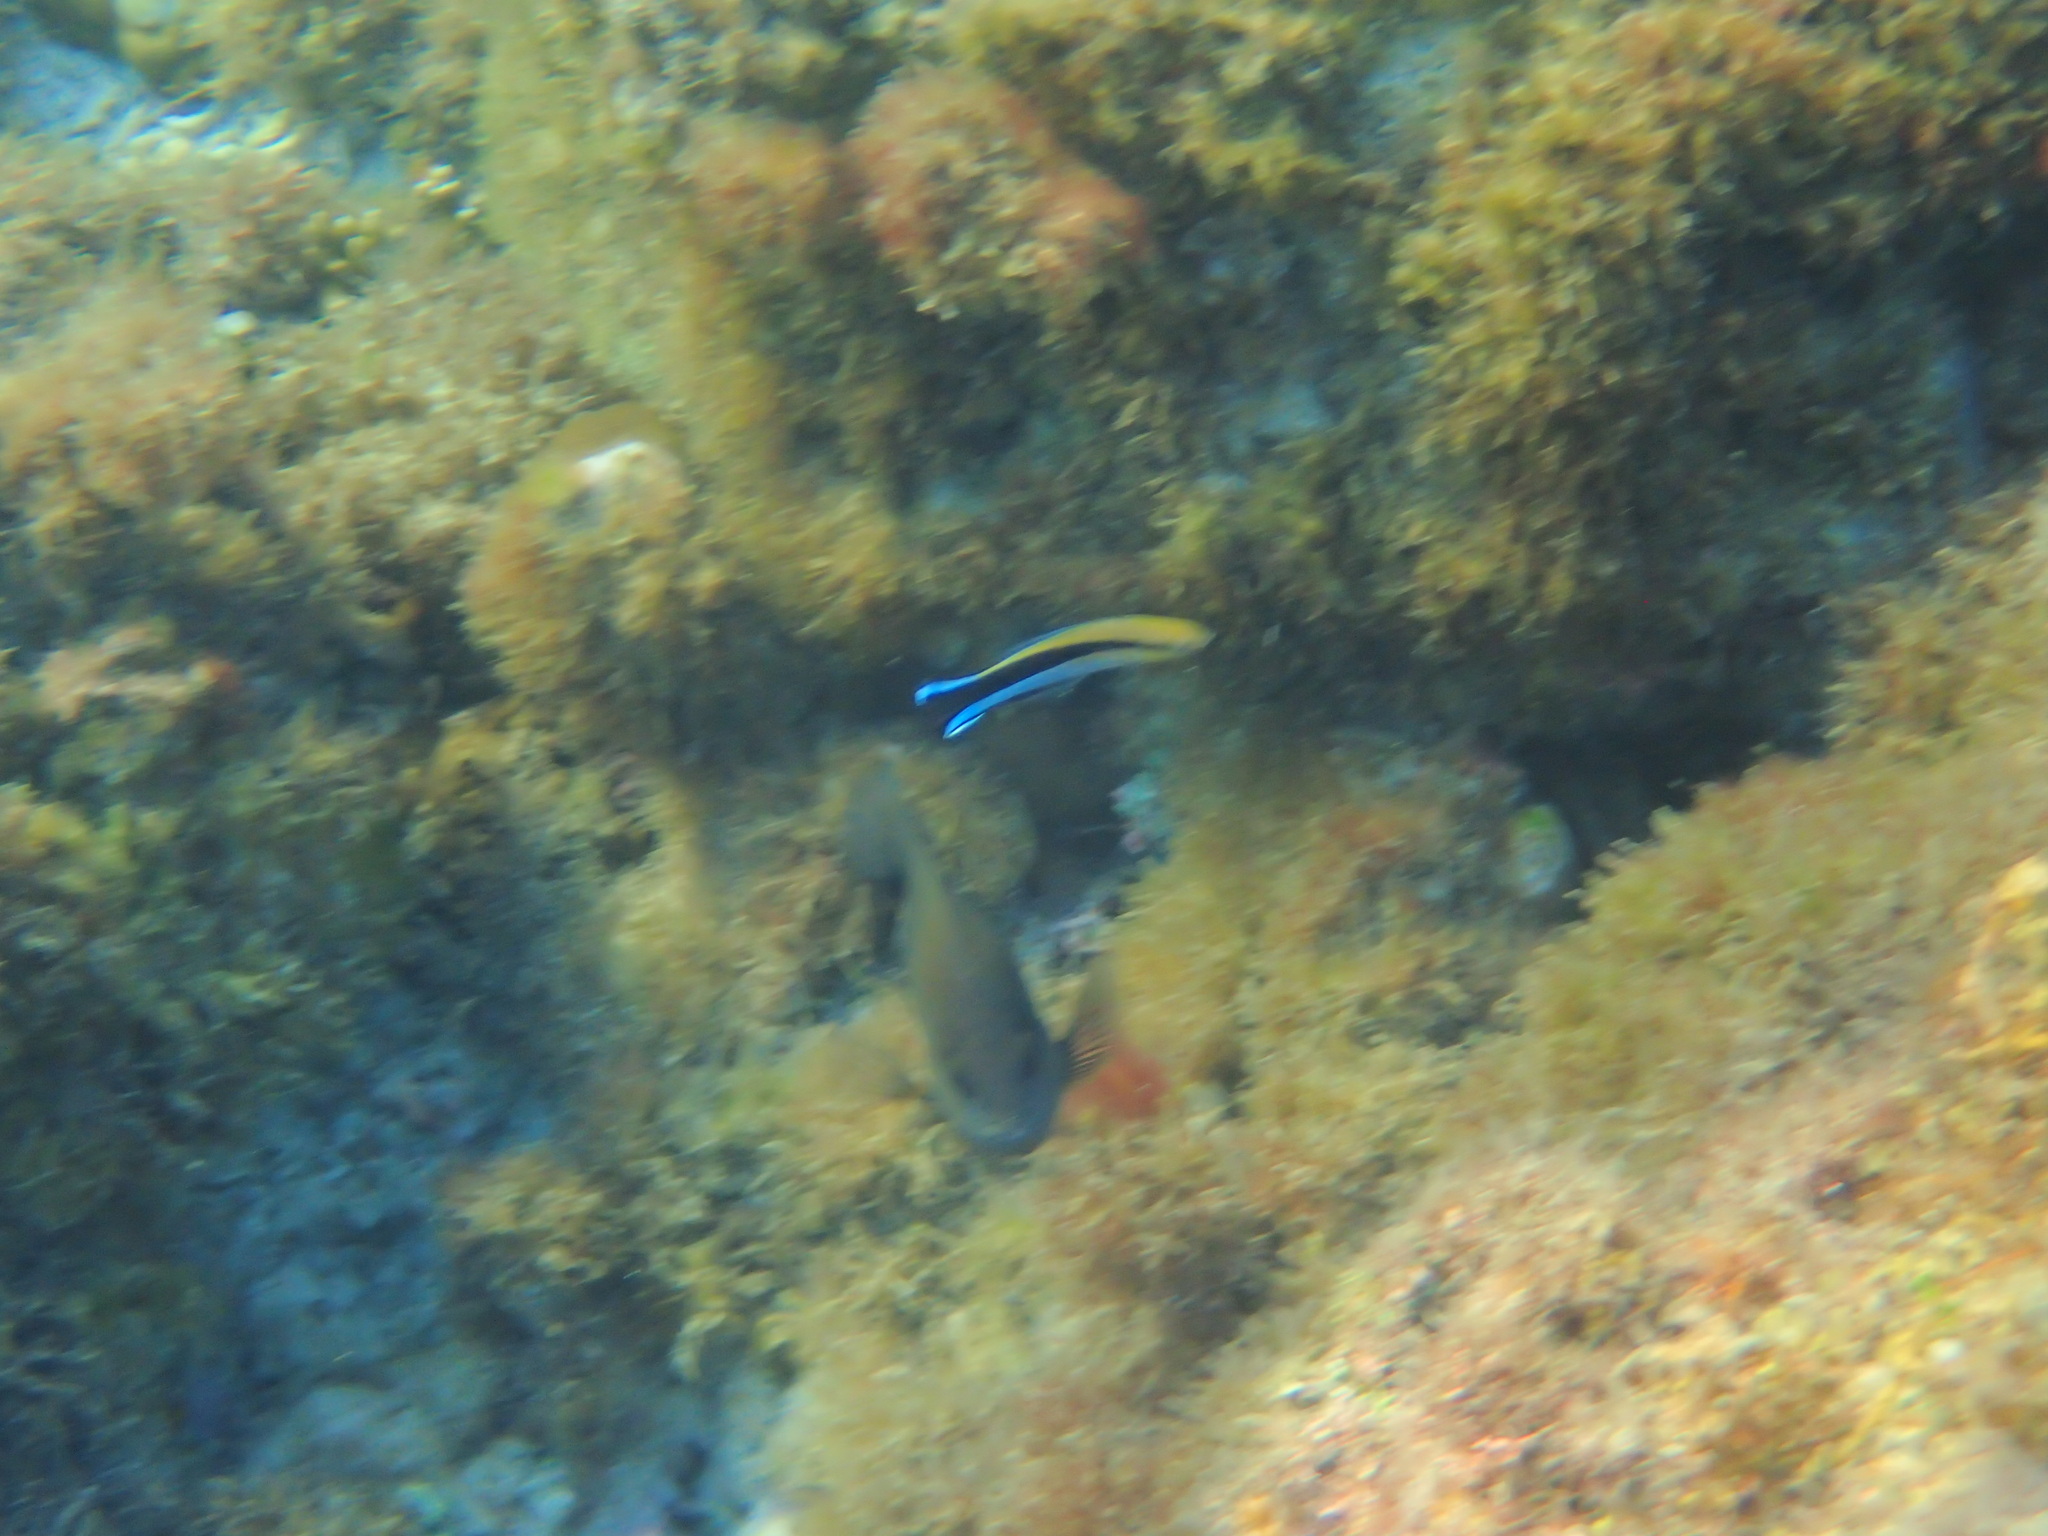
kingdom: Animalia
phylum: Chordata
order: Perciformes
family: Labridae
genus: Labroides
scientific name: Labroides dimidiatus
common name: Blue diesel wrasse
